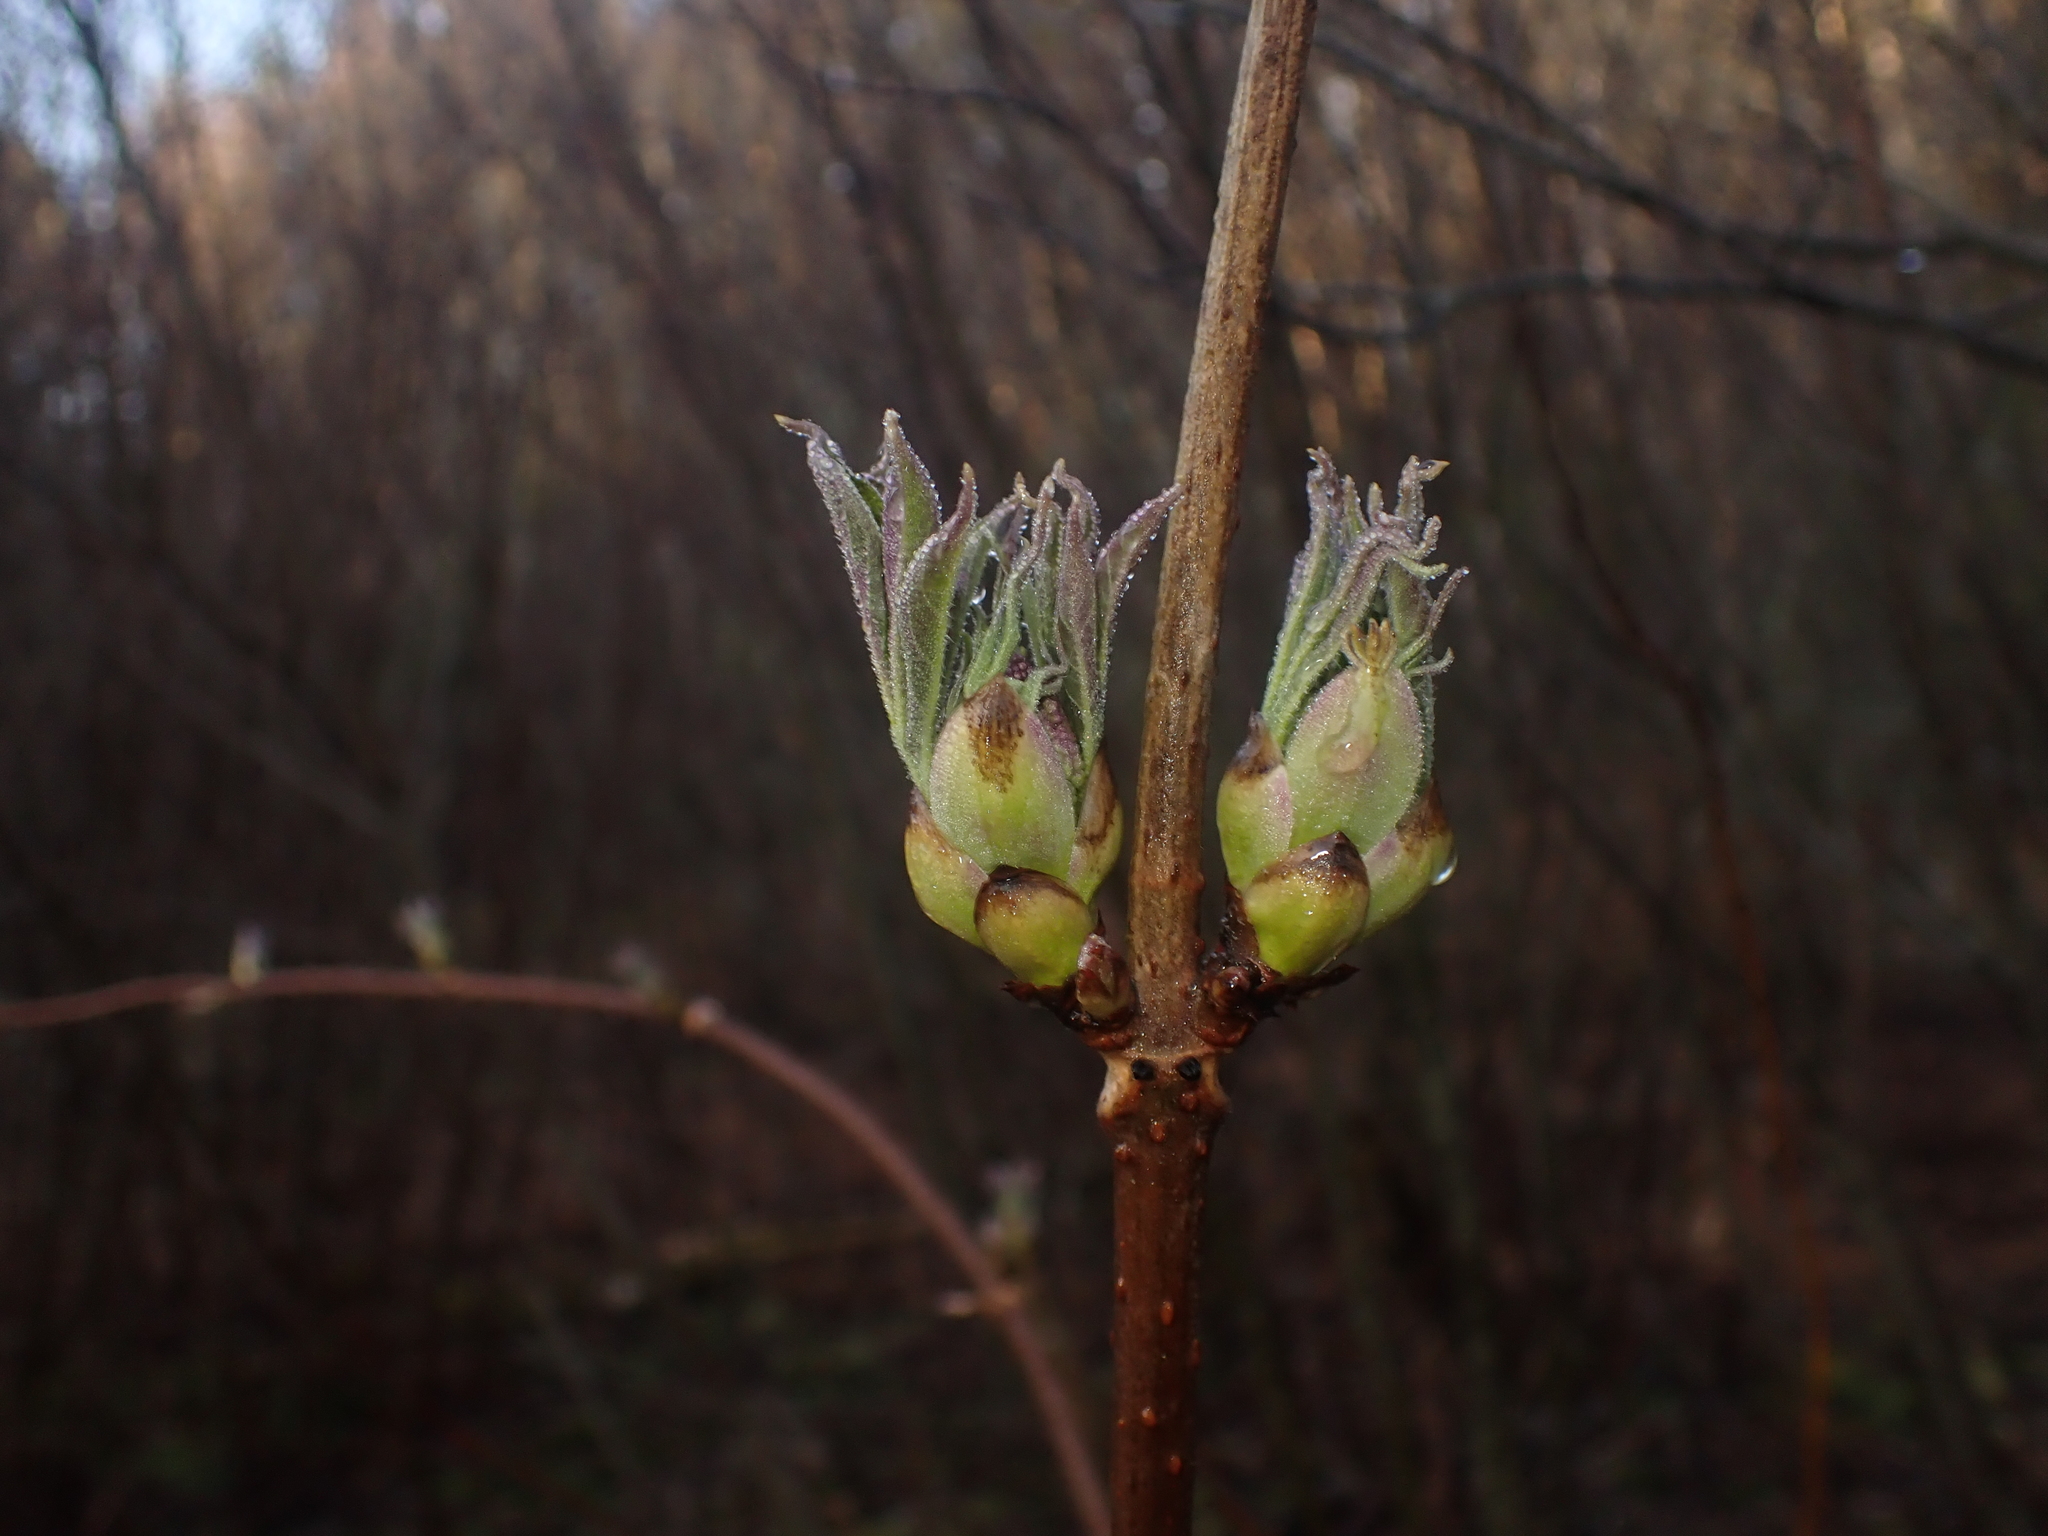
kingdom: Plantae
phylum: Tracheophyta
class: Magnoliopsida
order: Dipsacales
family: Viburnaceae
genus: Sambucus
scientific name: Sambucus racemosa
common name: Red-berried elder
